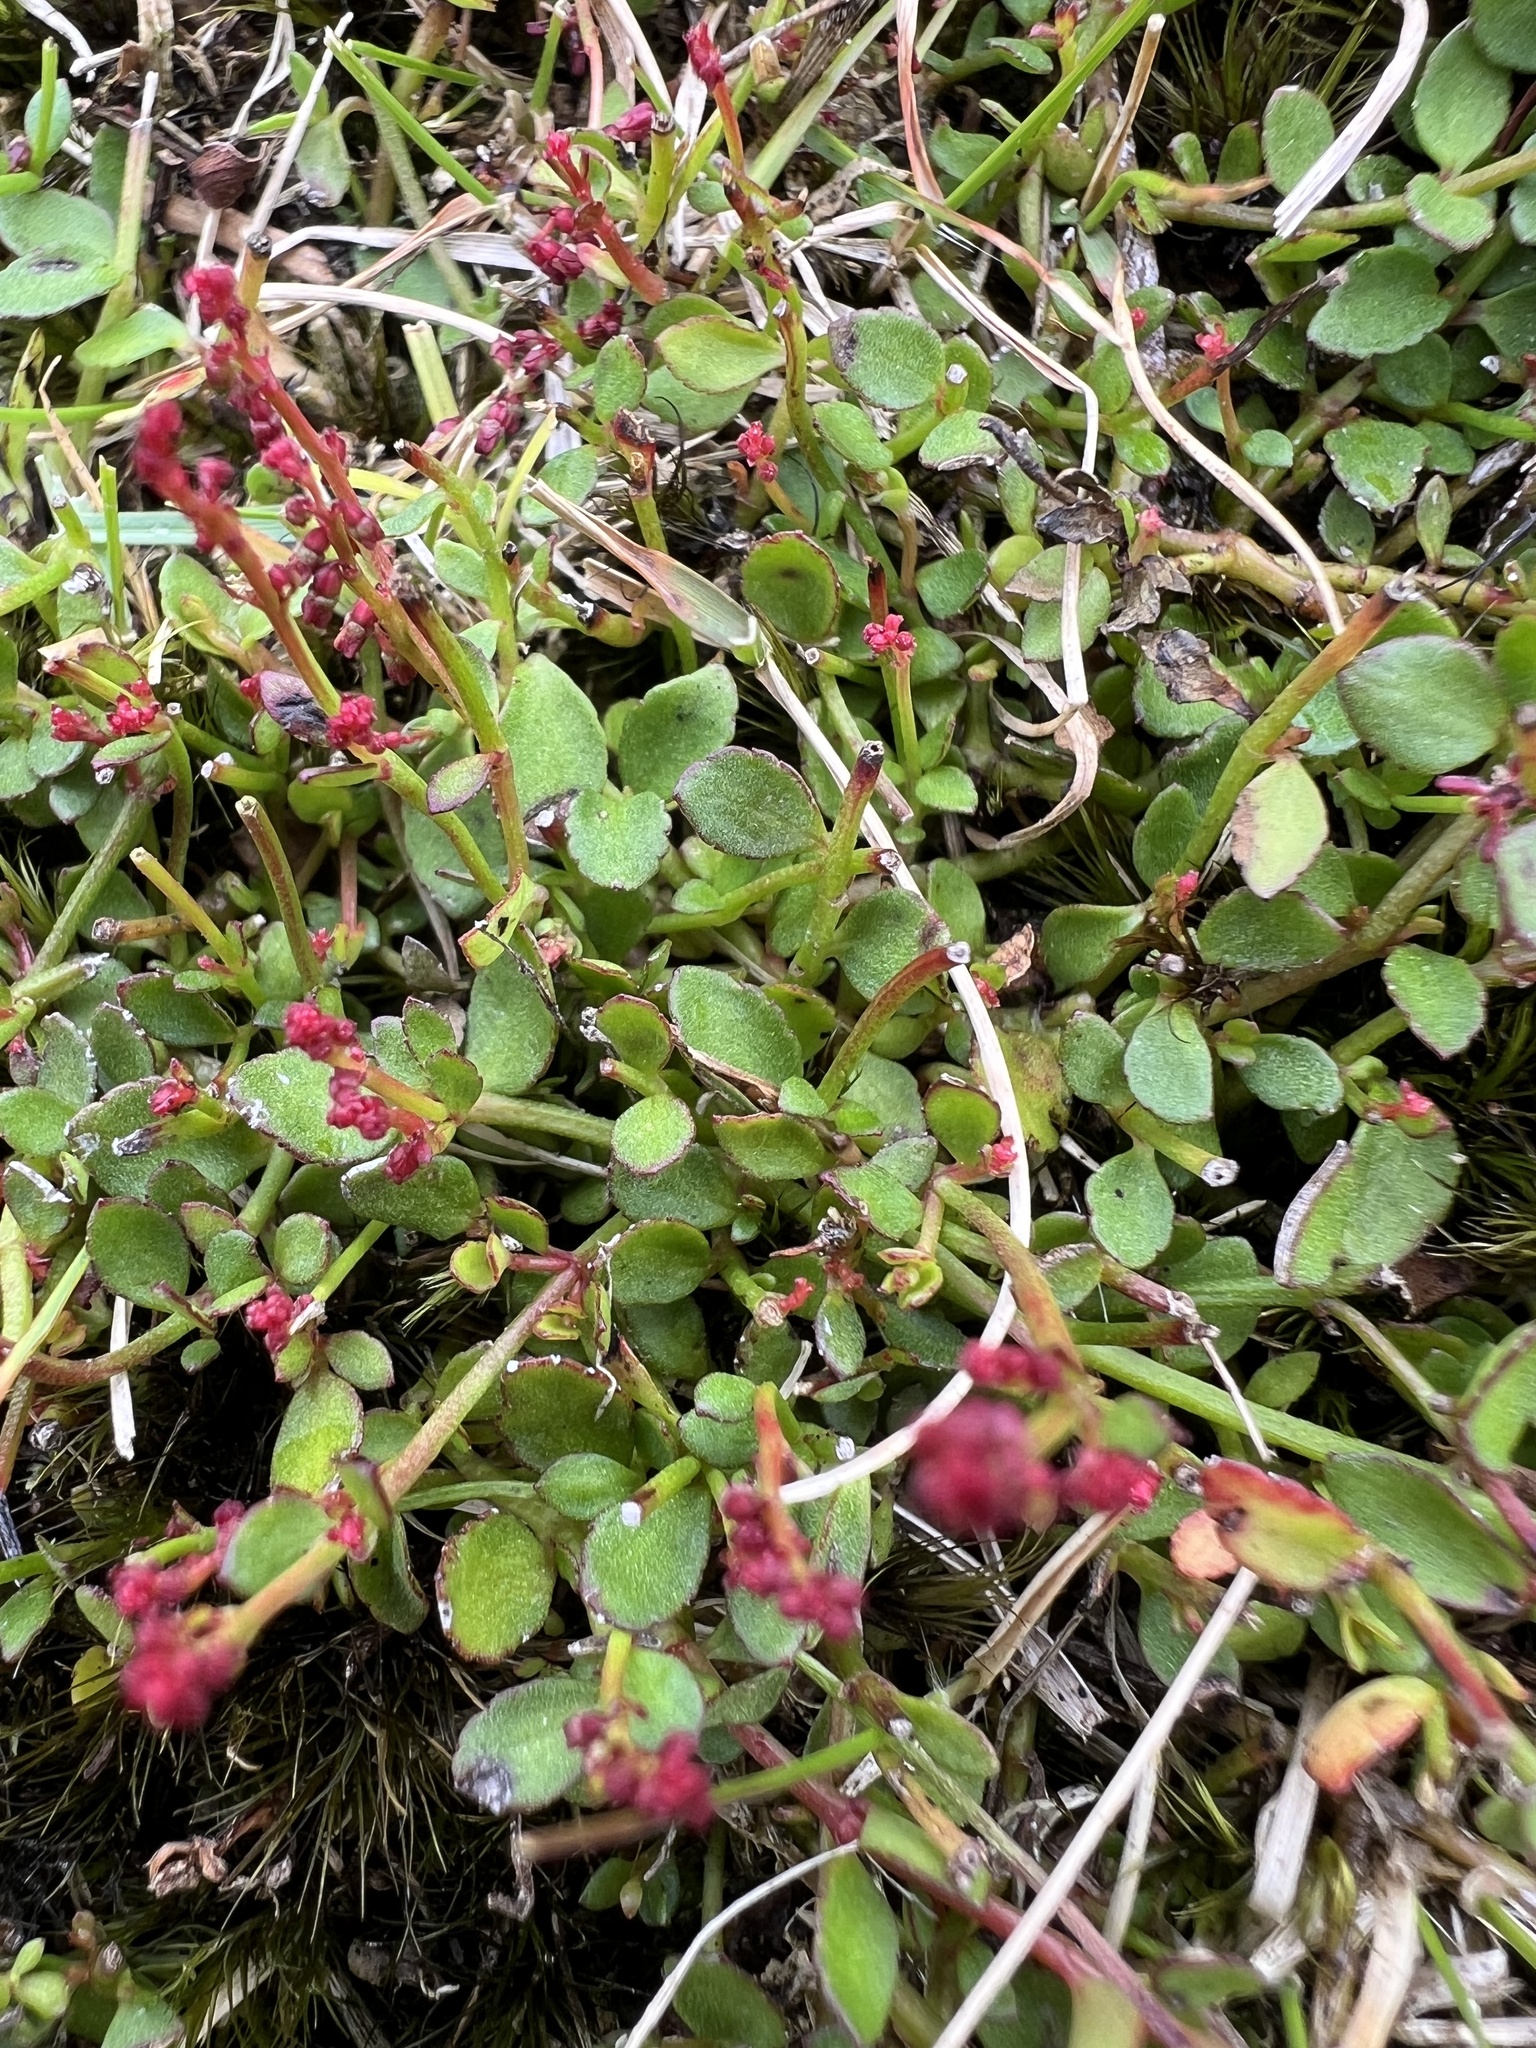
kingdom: Plantae
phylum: Tracheophyta
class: Magnoliopsida
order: Saxifragales
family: Haloragaceae
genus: Gonocarpus
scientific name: Gonocarpus micranthus
